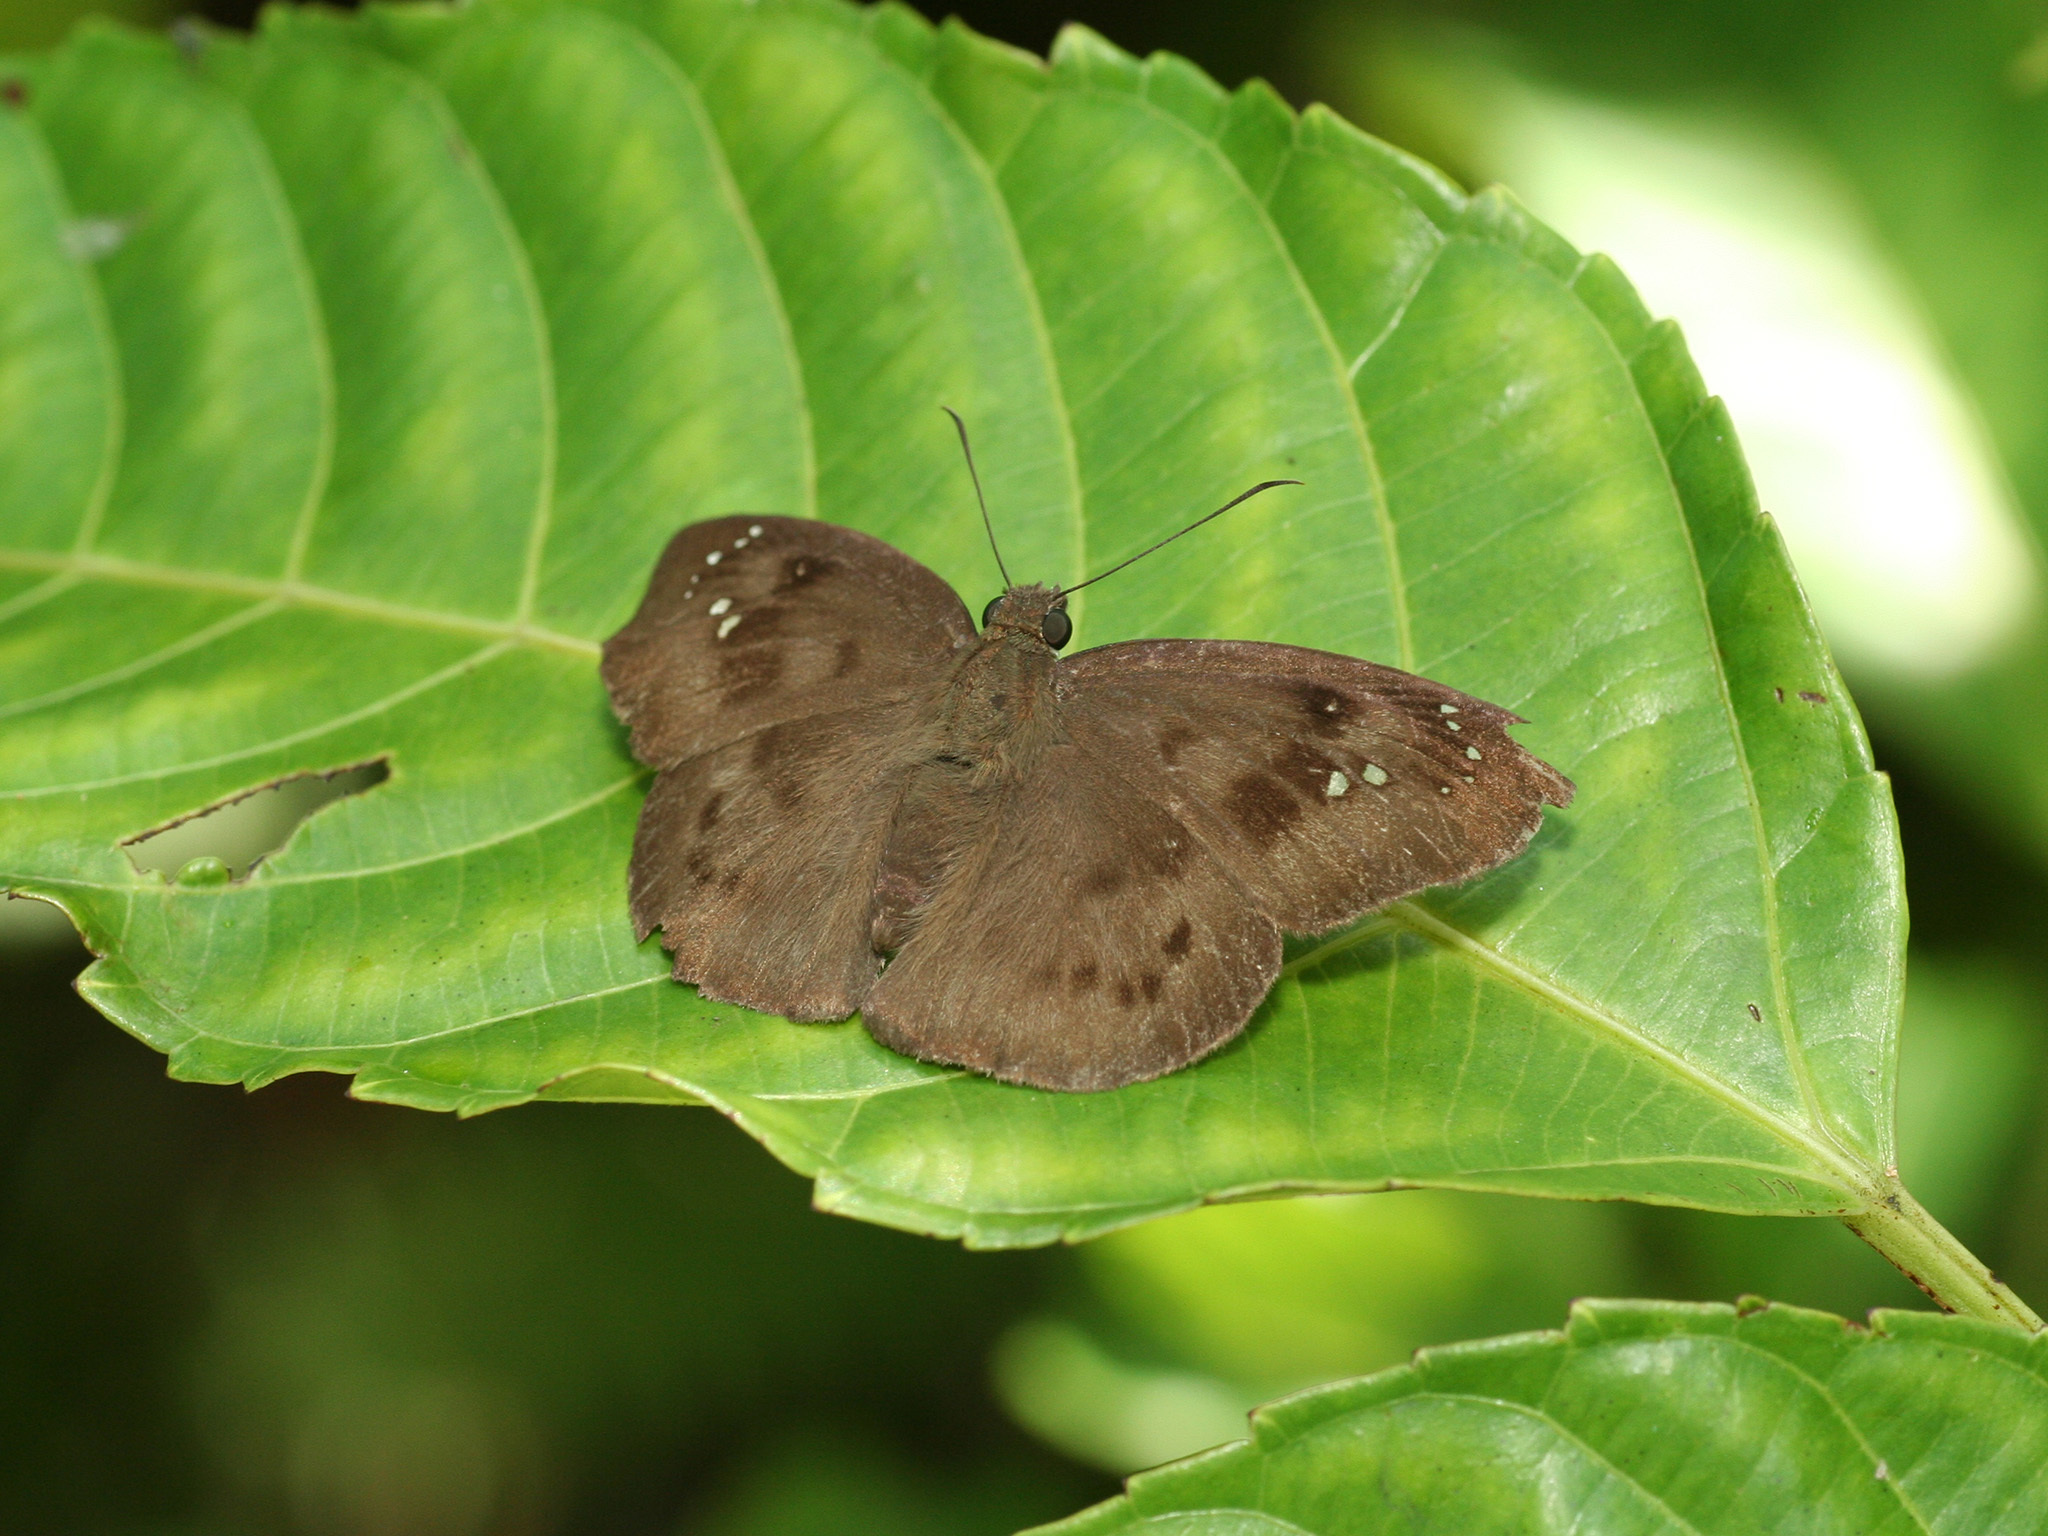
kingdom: Animalia
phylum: Arthropoda
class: Insecta
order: Lepidoptera
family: Hesperiidae
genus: Tagiades
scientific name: Tagiades japetus
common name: Pied flat
